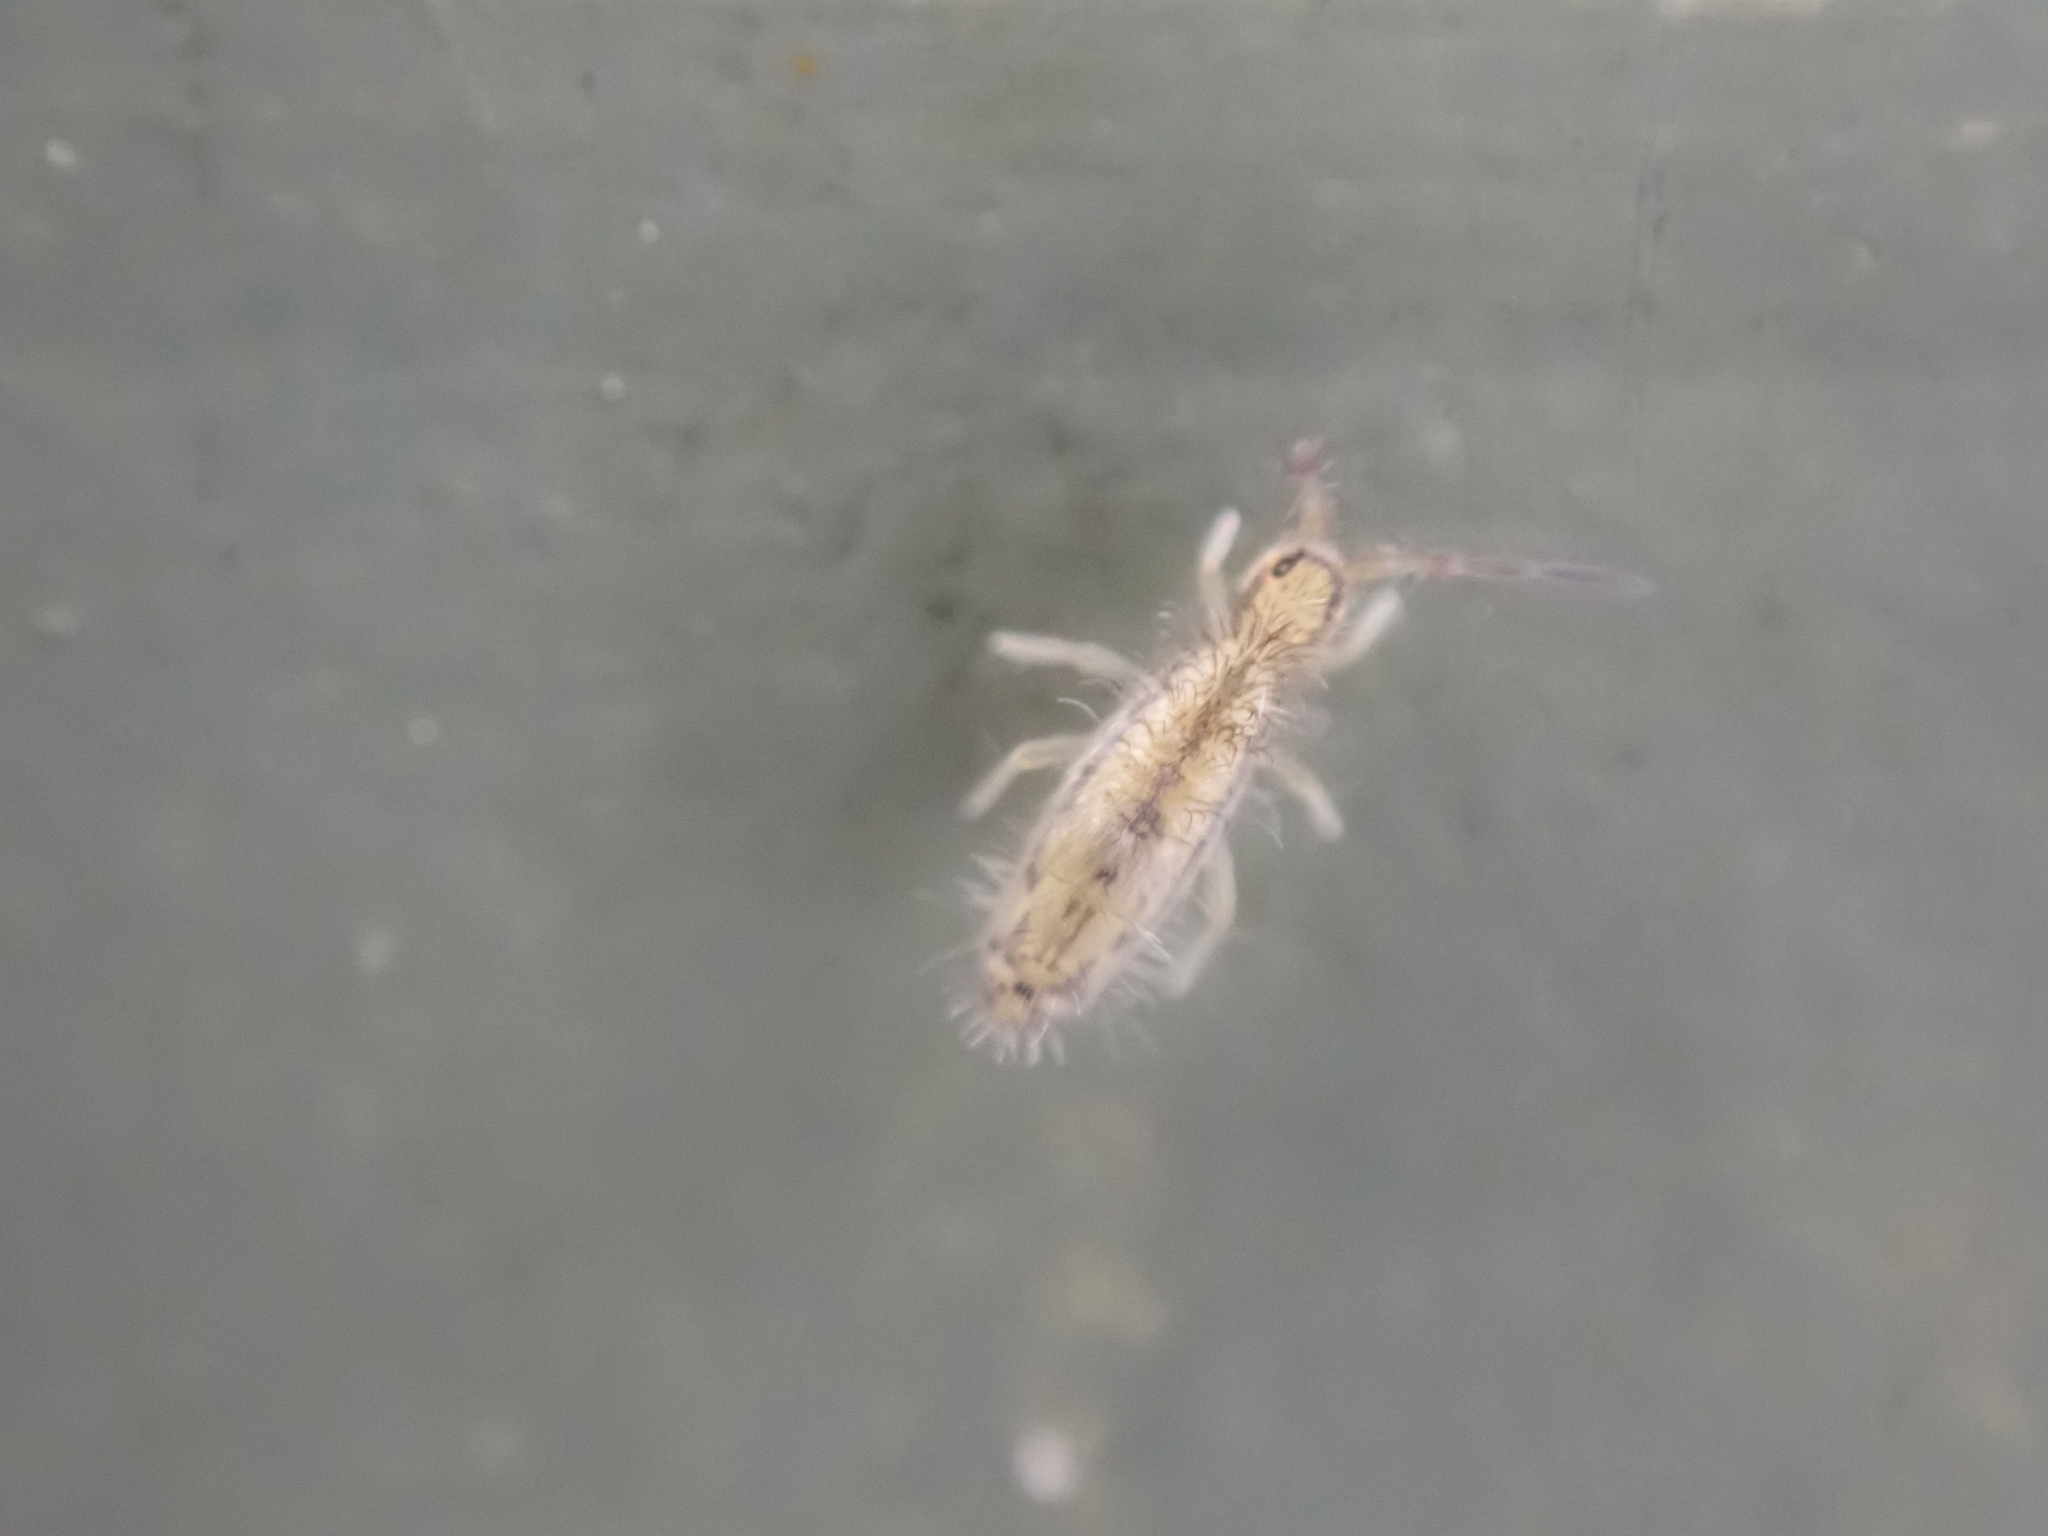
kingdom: Animalia
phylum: Arthropoda
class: Collembola
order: Entomobryomorpha
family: Entomobryidae
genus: Homidia
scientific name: Homidia socia
